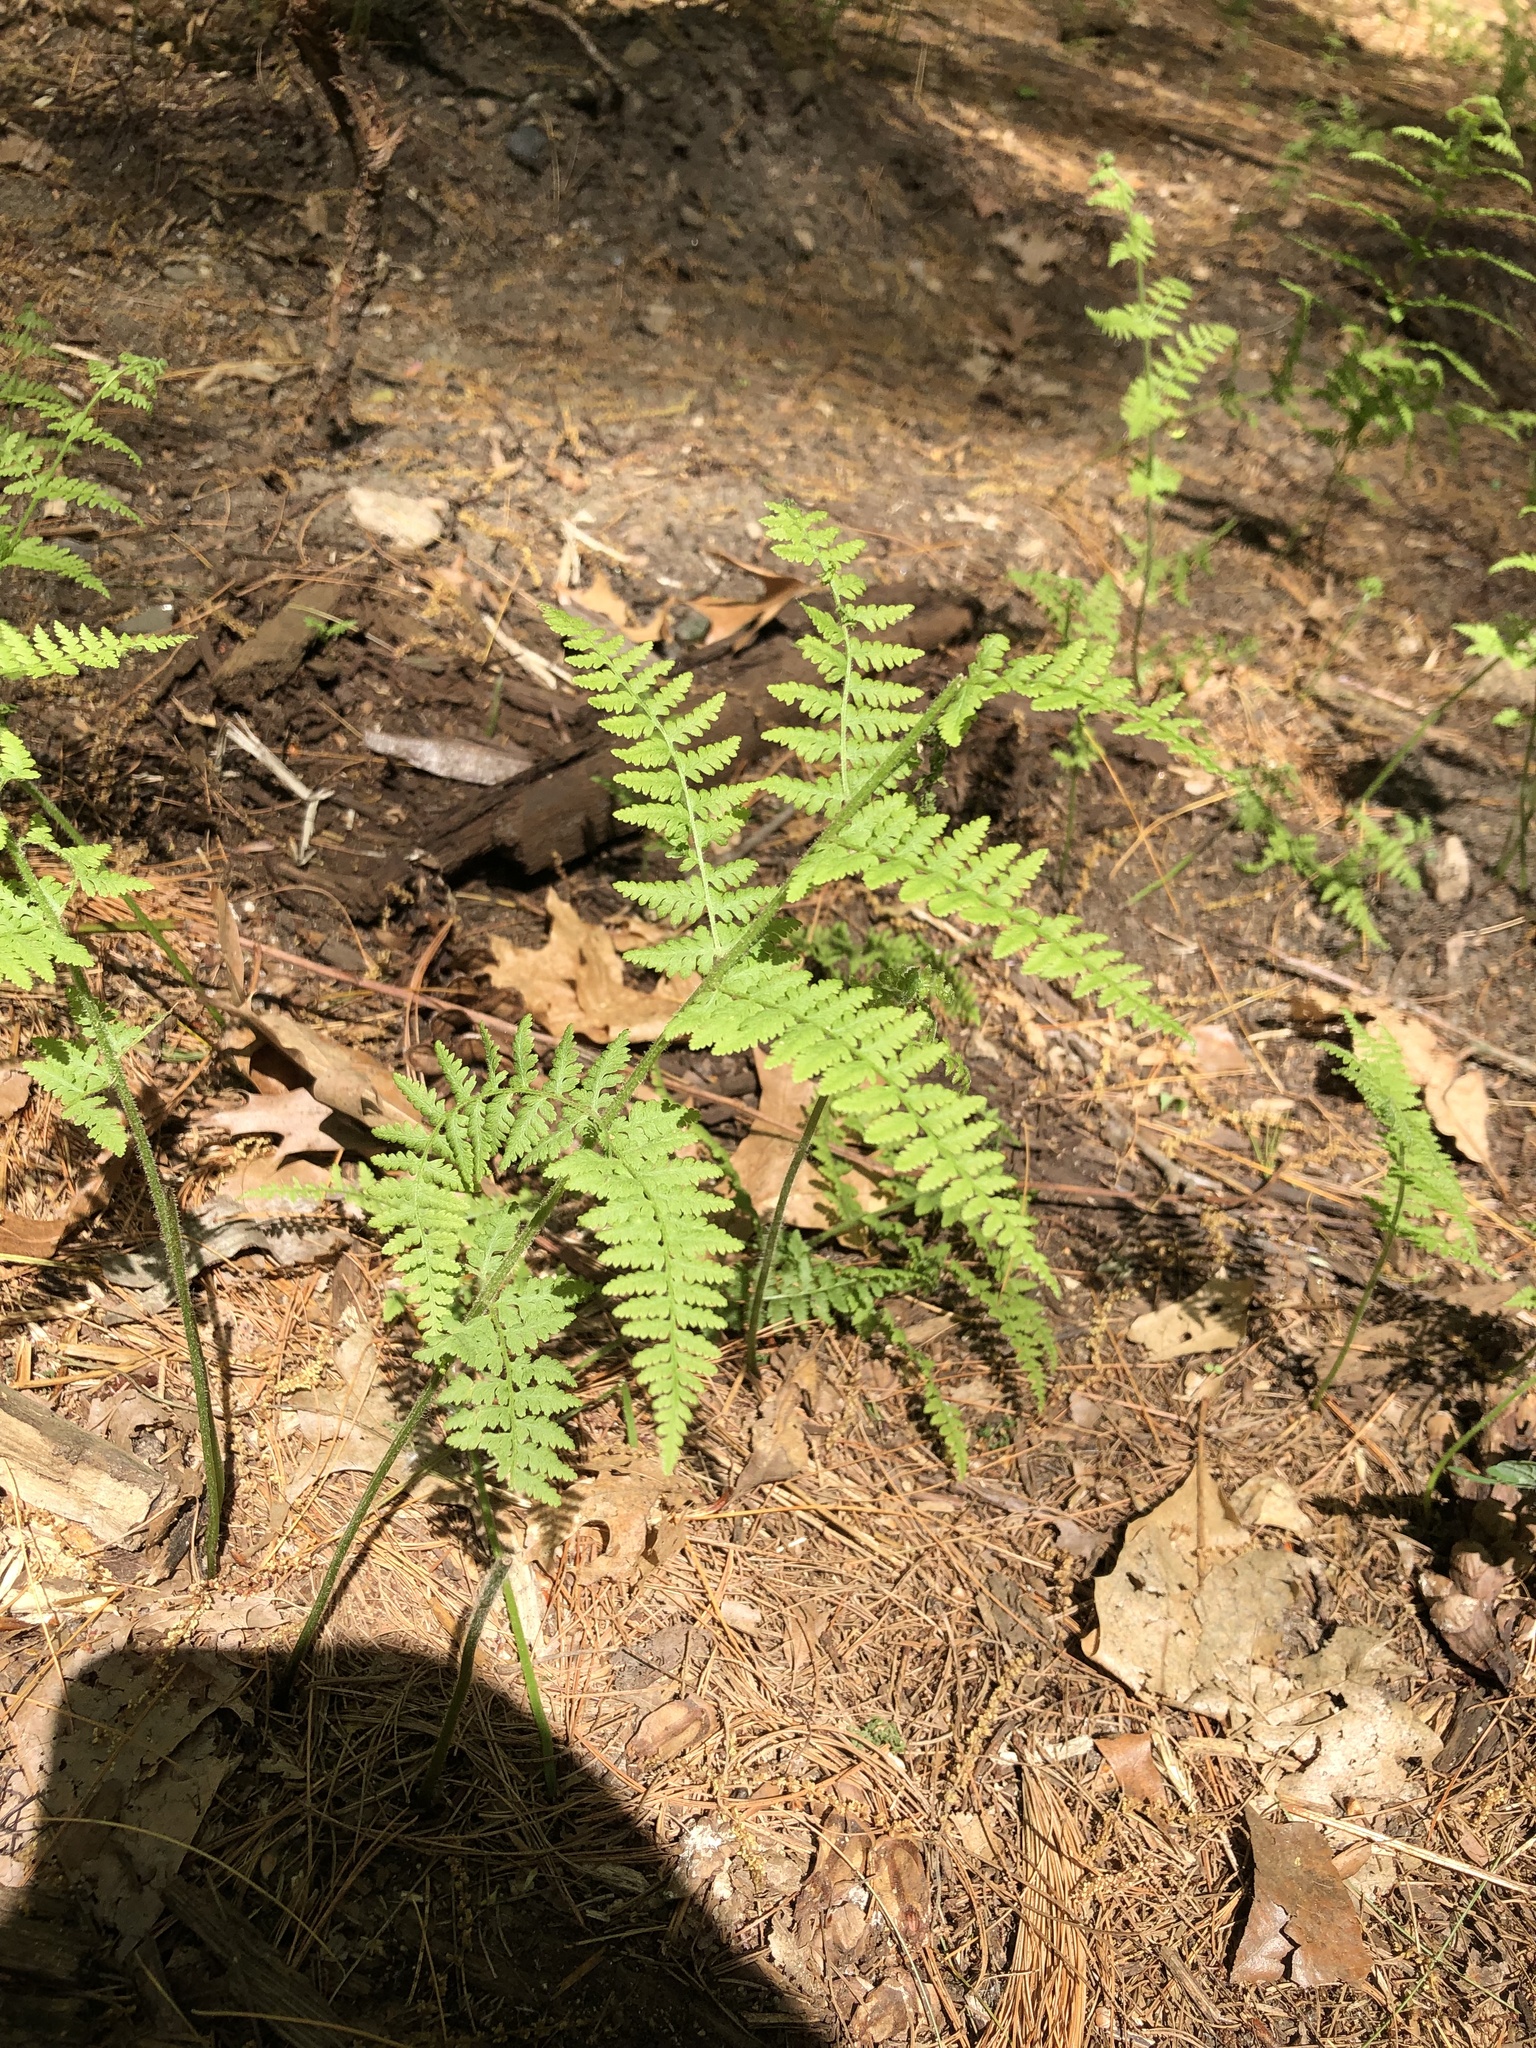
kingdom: Plantae
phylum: Tracheophyta
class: Polypodiopsida
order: Polypodiales
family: Dennstaedtiaceae
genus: Sitobolium
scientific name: Sitobolium punctilobum
